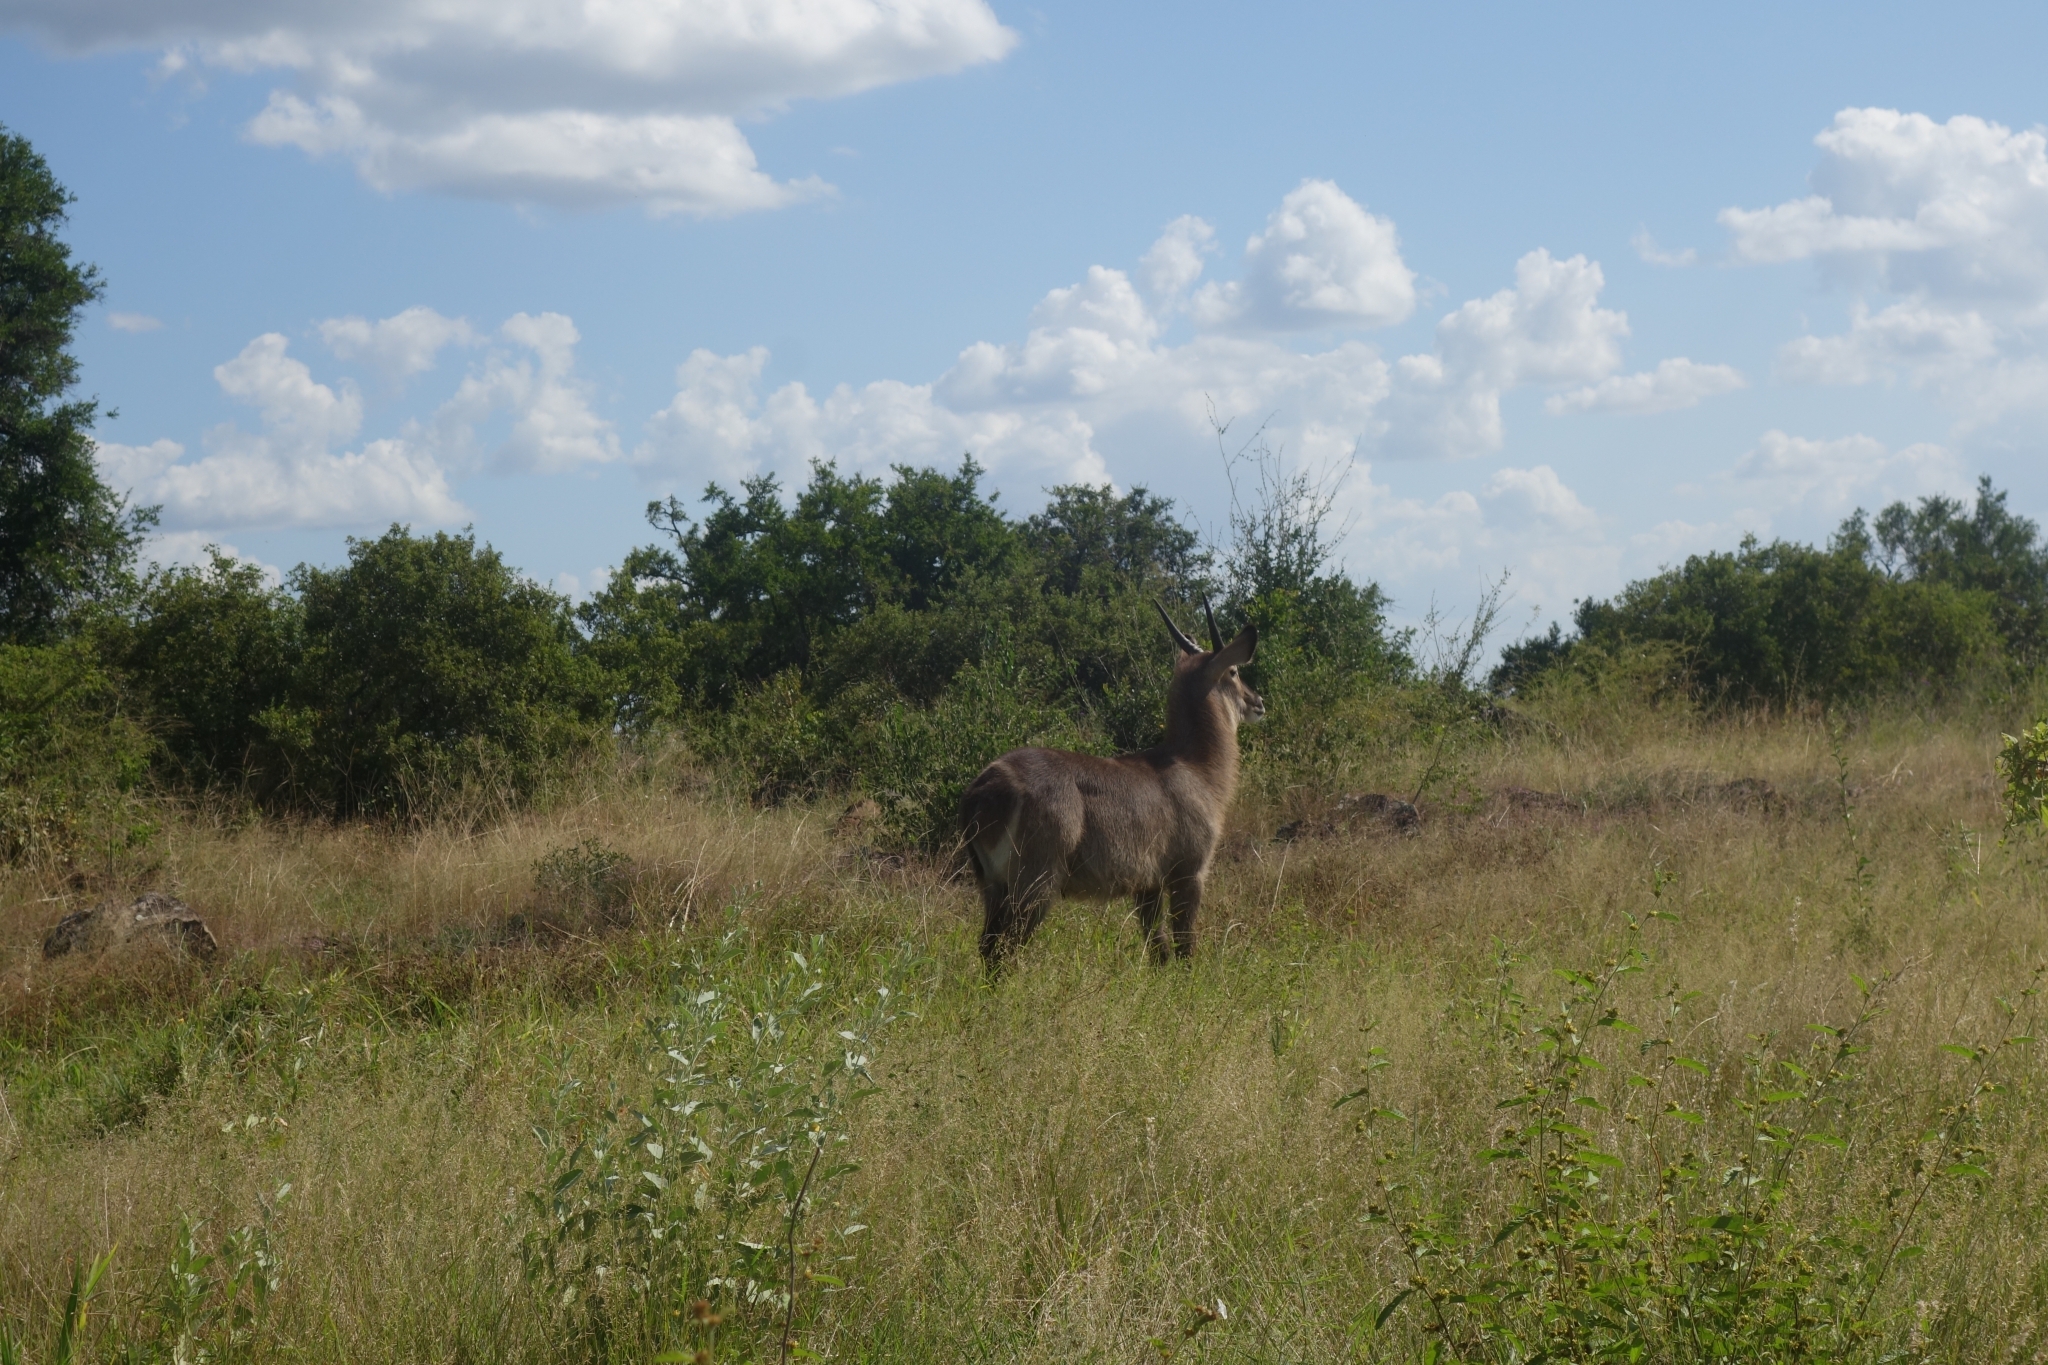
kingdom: Animalia
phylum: Chordata
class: Mammalia
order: Artiodactyla
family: Bovidae
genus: Kobus
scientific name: Kobus ellipsiprymnus
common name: Waterbuck
